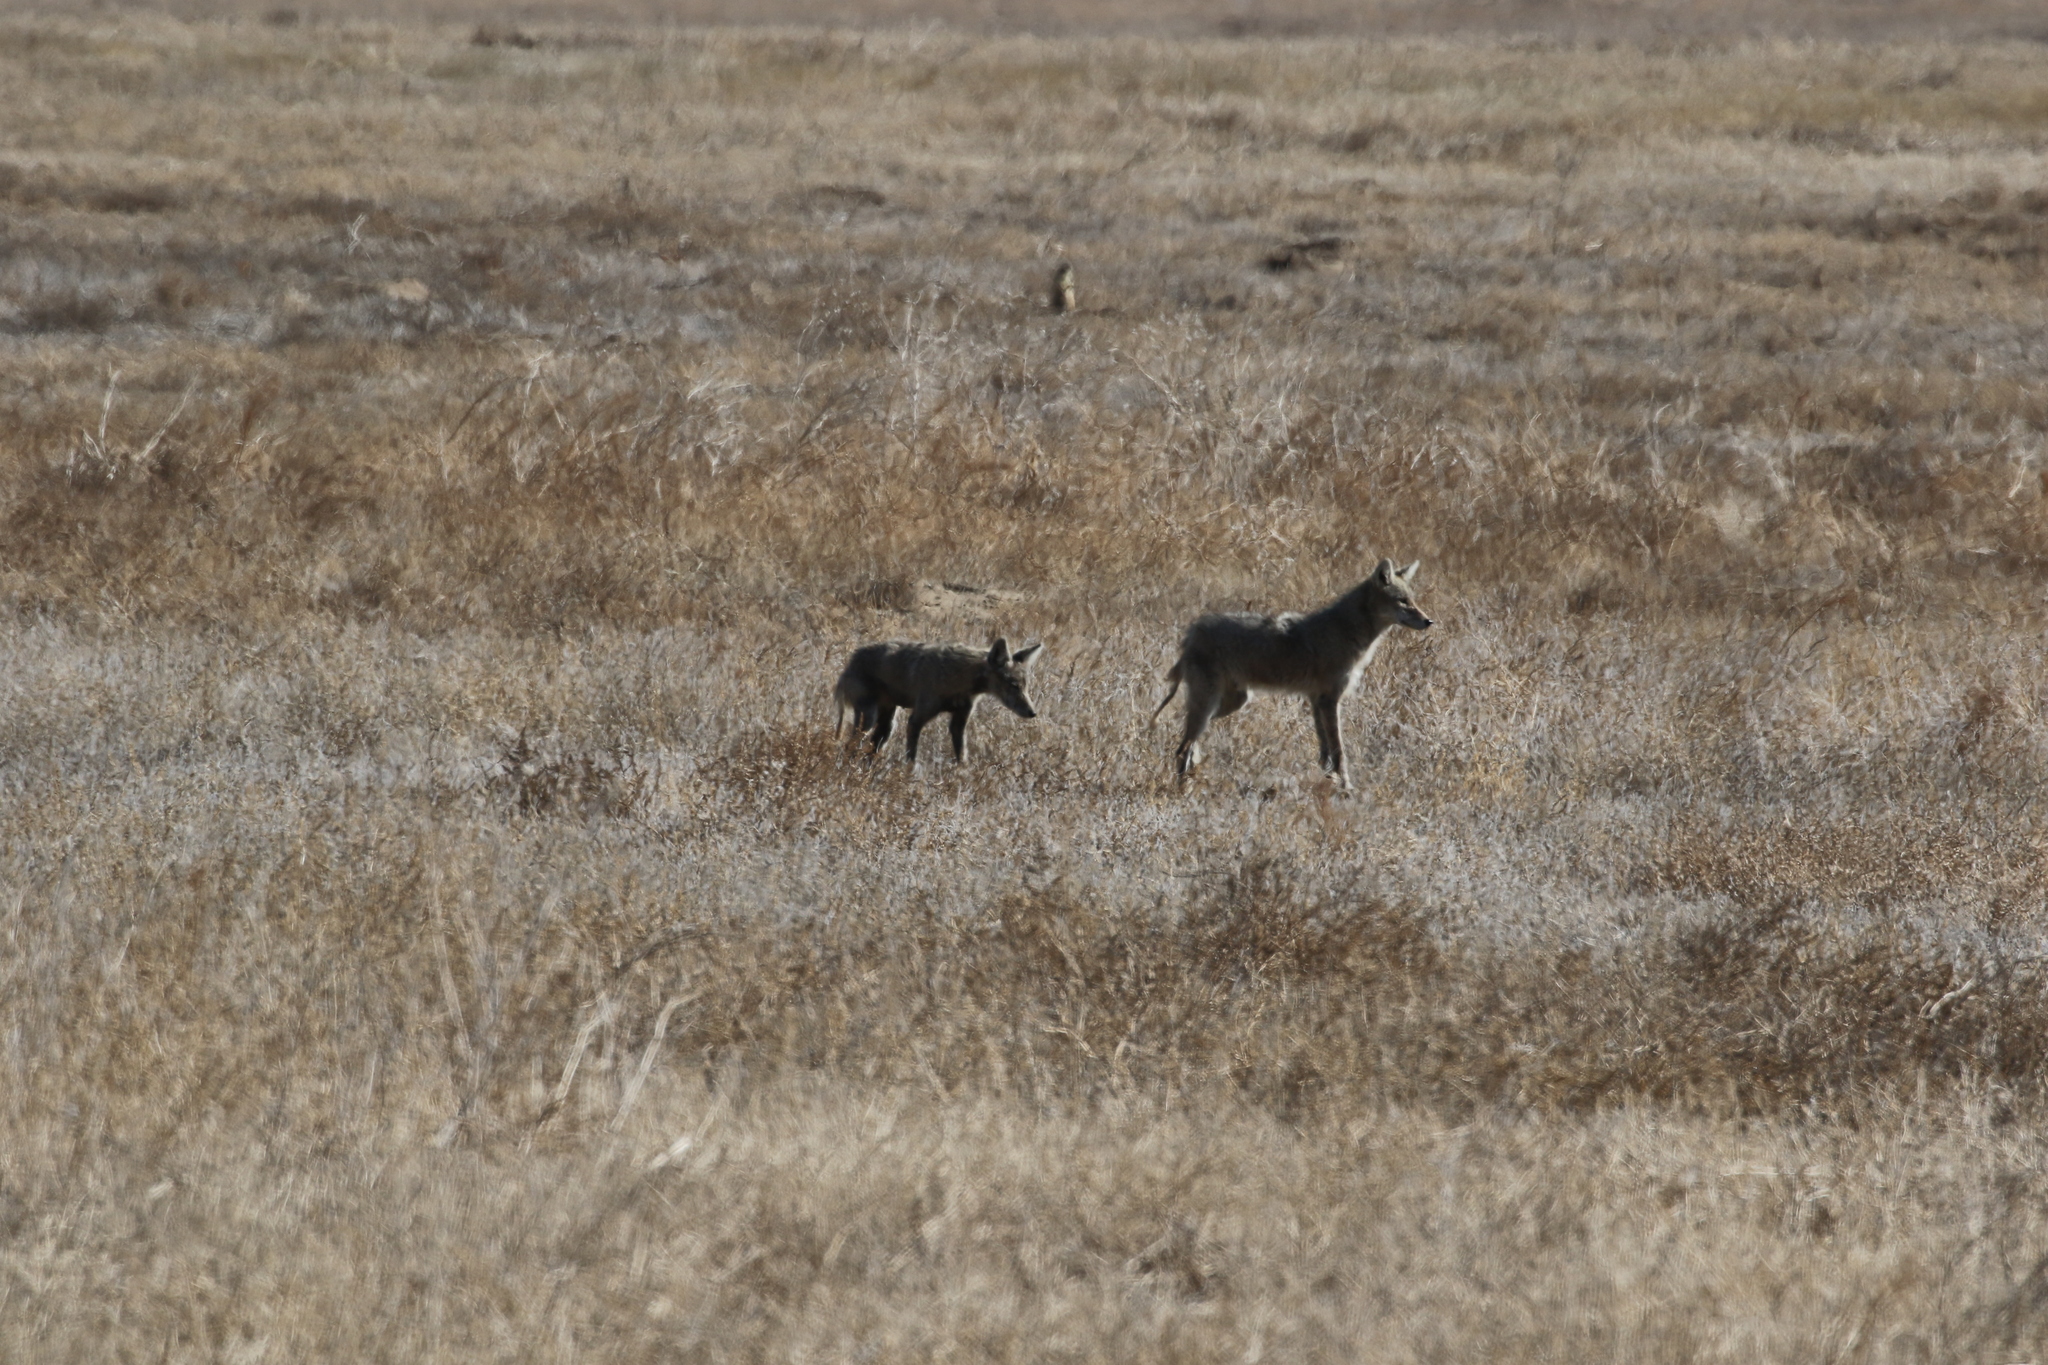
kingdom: Animalia
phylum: Chordata
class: Mammalia
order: Carnivora
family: Canidae
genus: Canis
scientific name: Canis latrans
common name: Coyote
